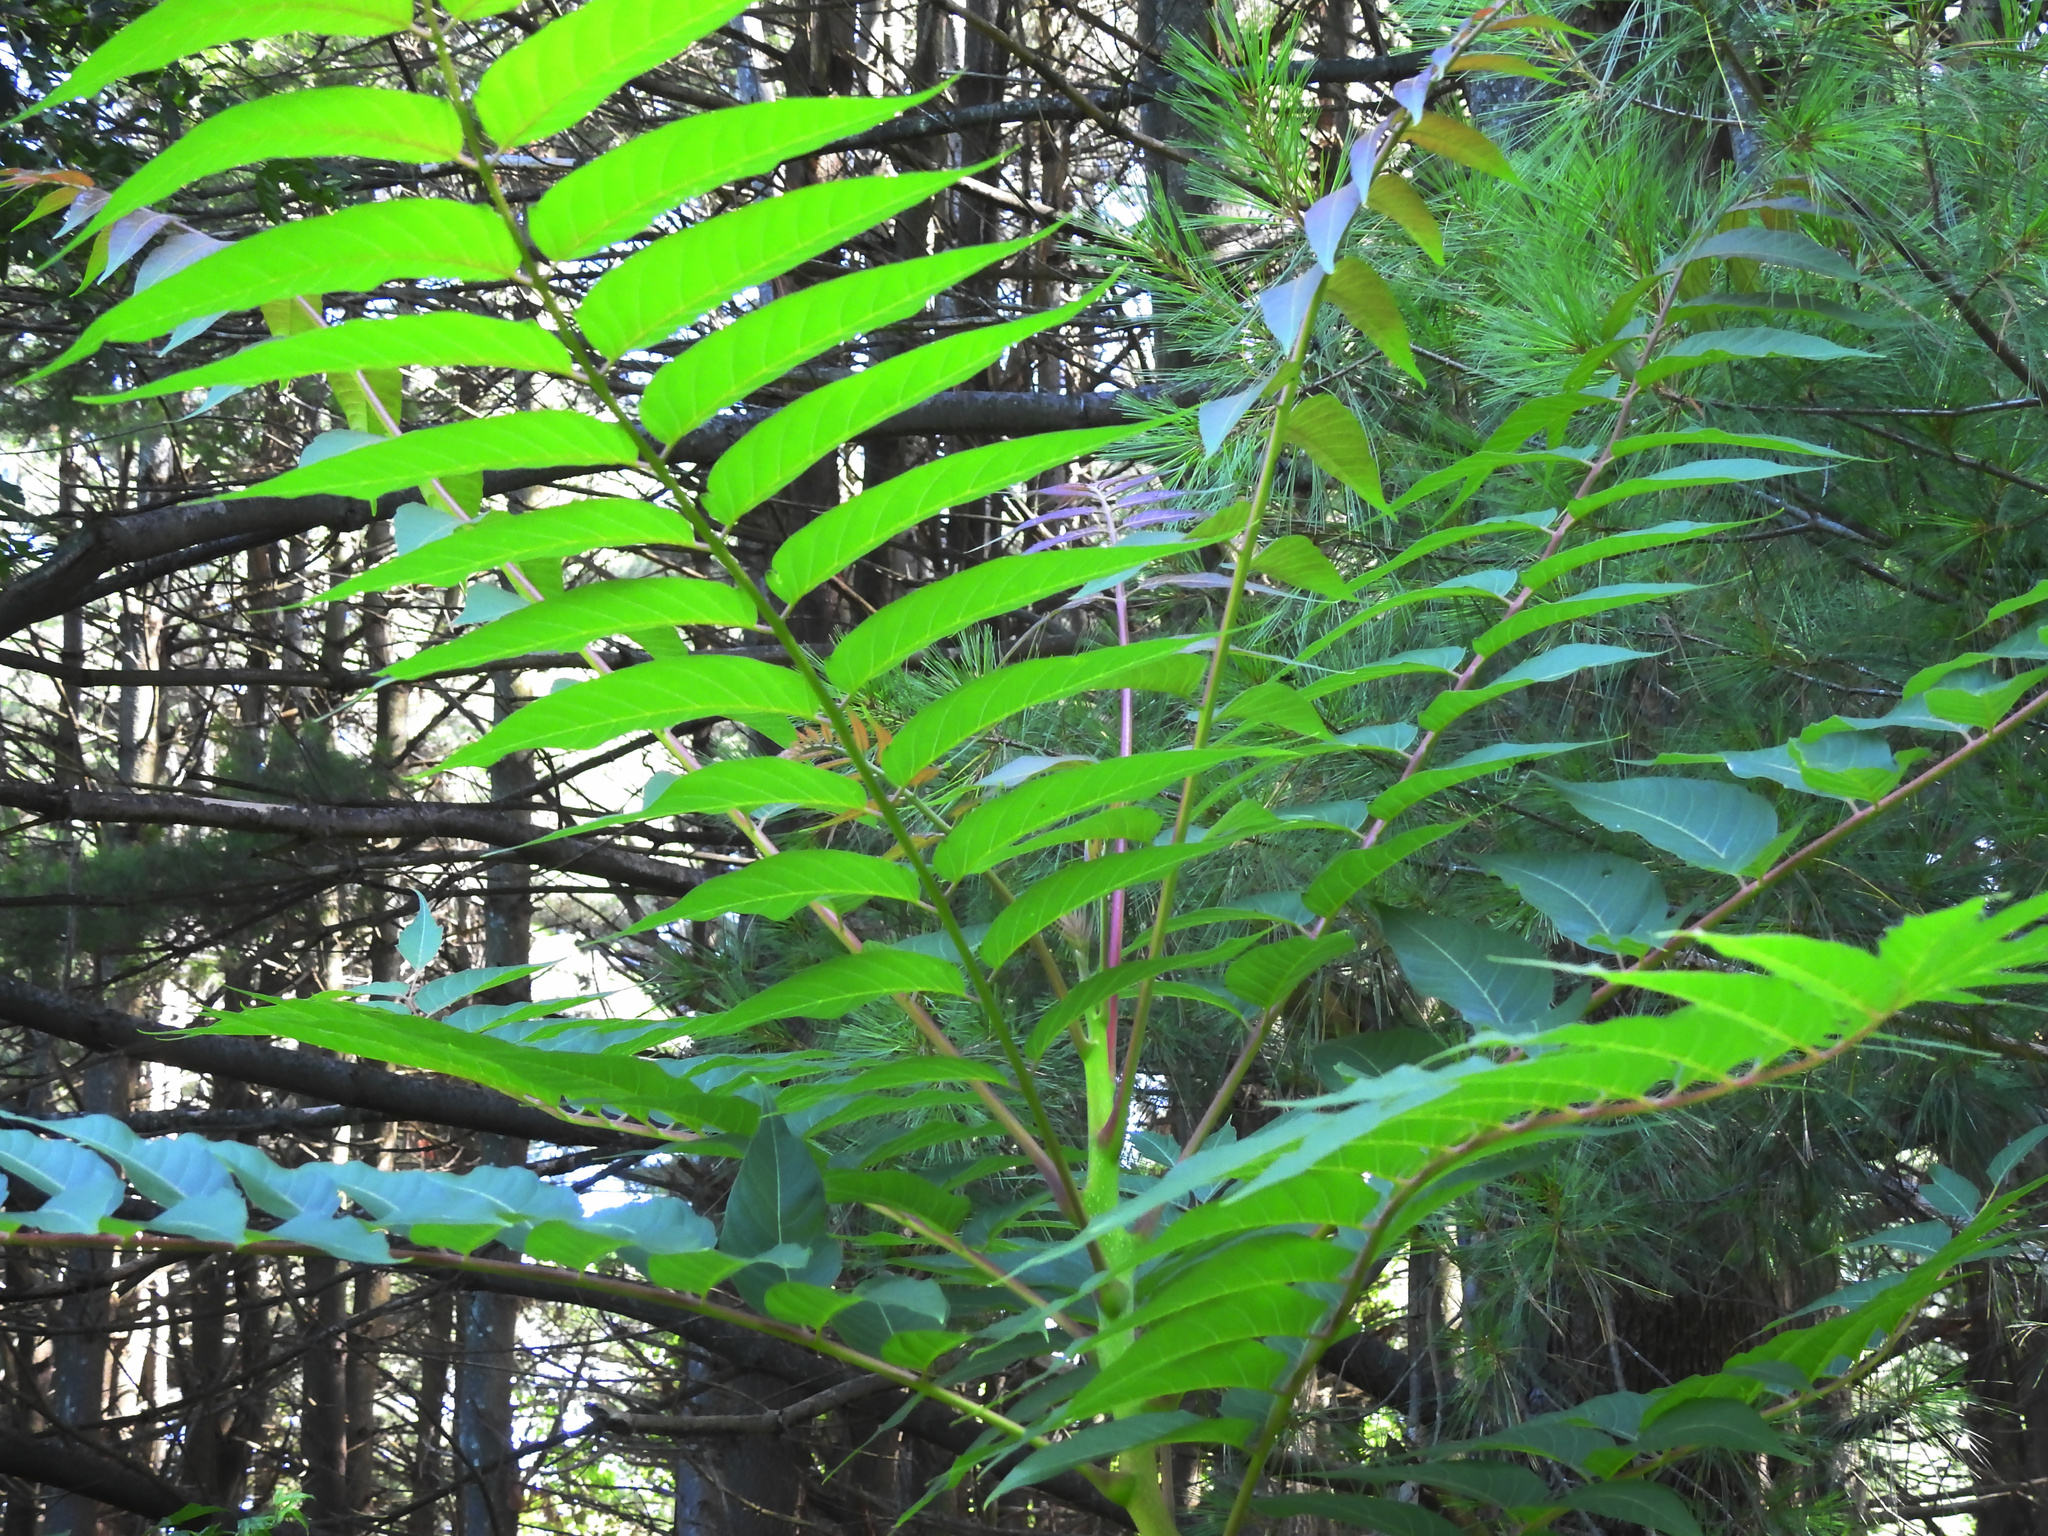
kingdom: Plantae
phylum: Tracheophyta
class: Magnoliopsida
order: Sapindales
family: Simaroubaceae
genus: Ailanthus
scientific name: Ailanthus altissima
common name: Tree-of-heaven
